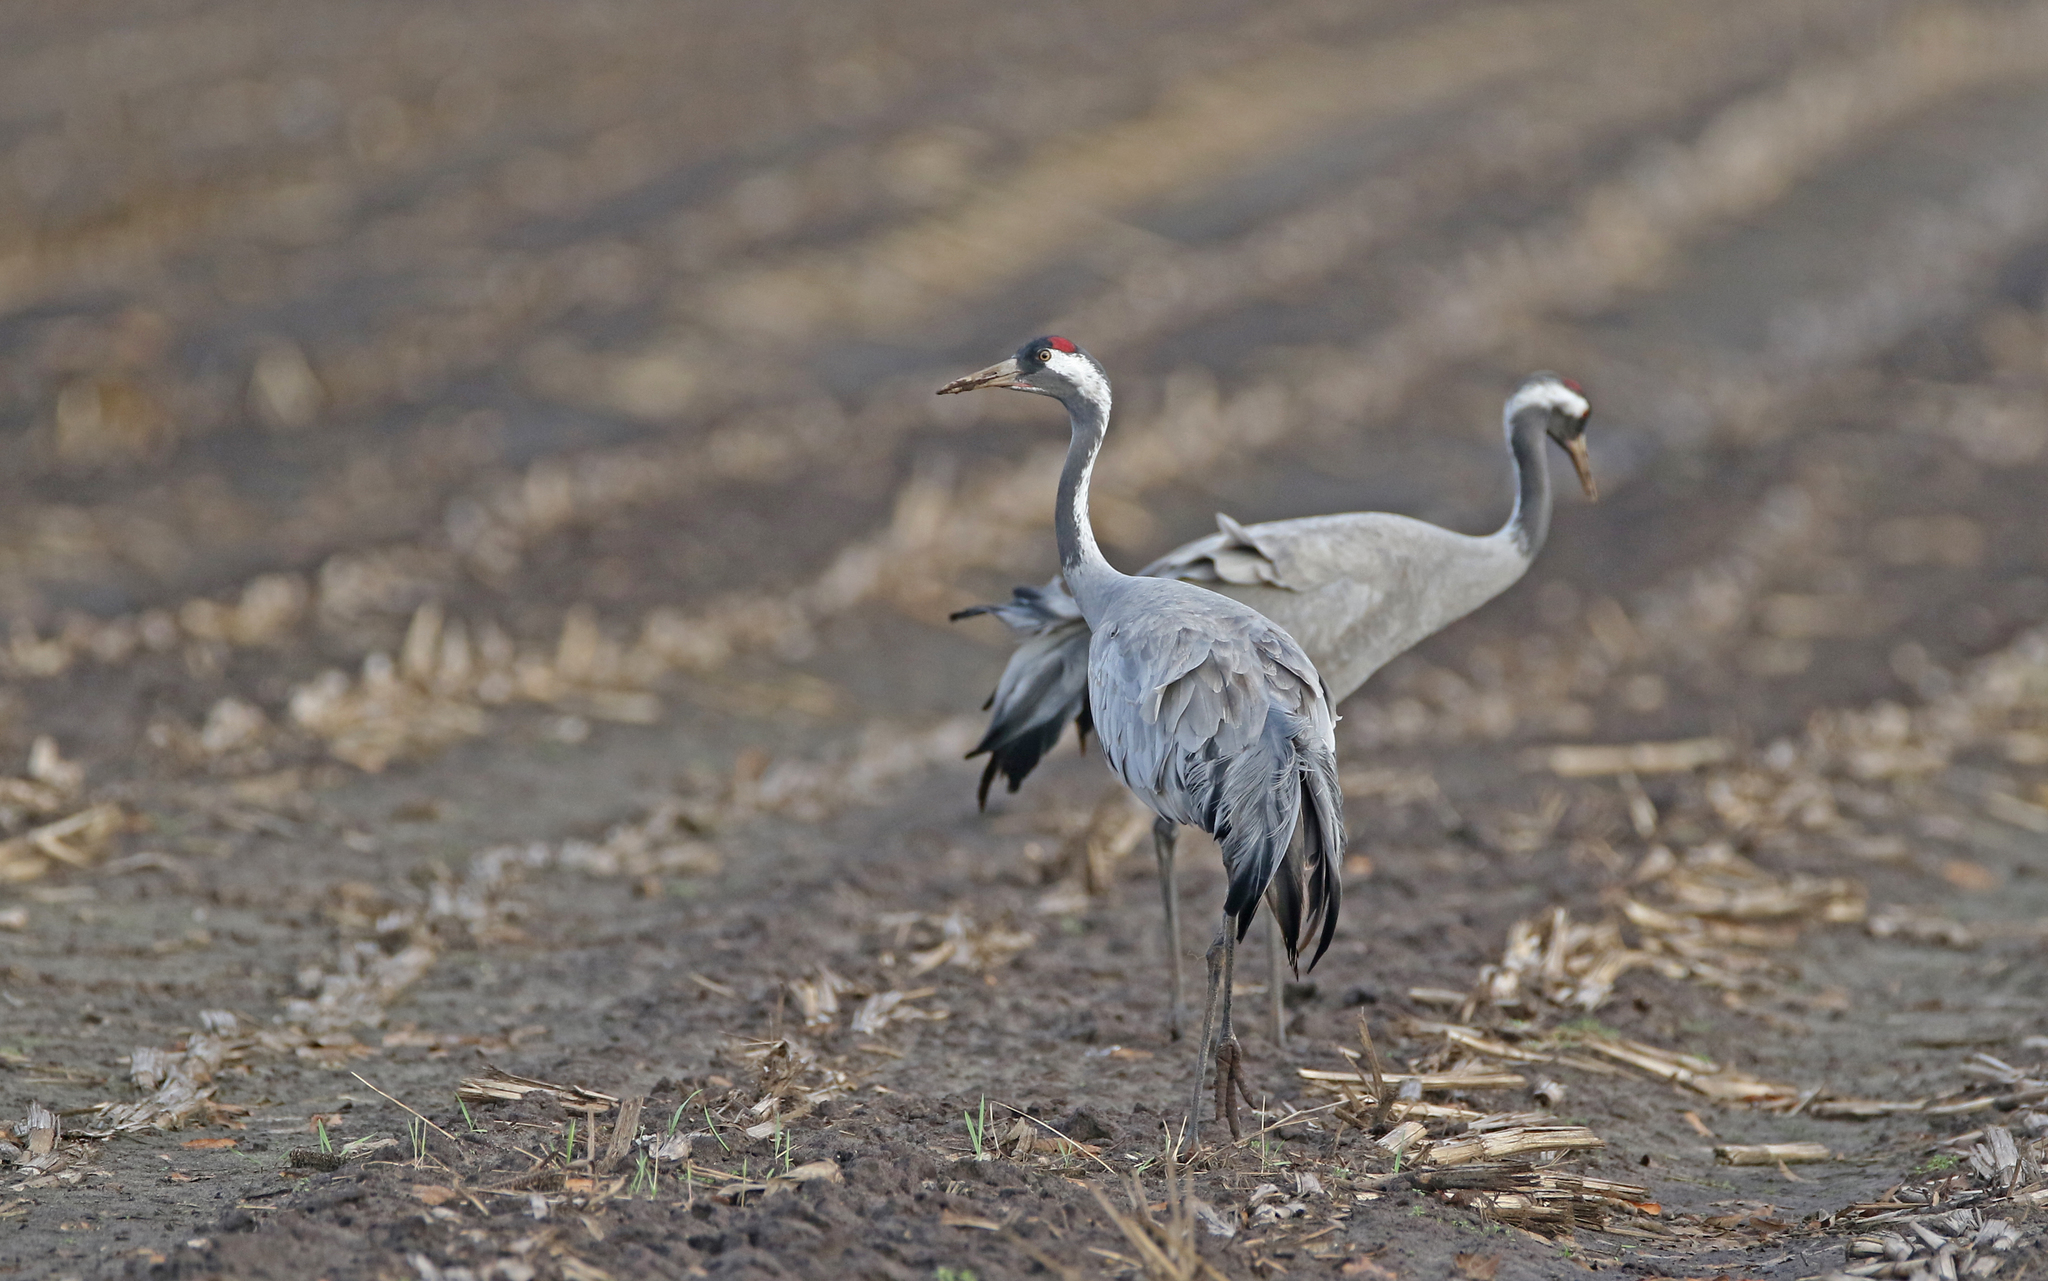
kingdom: Animalia
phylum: Chordata
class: Aves
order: Gruiformes
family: Gruidae
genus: Grus
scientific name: Grus grus
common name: Common crane
